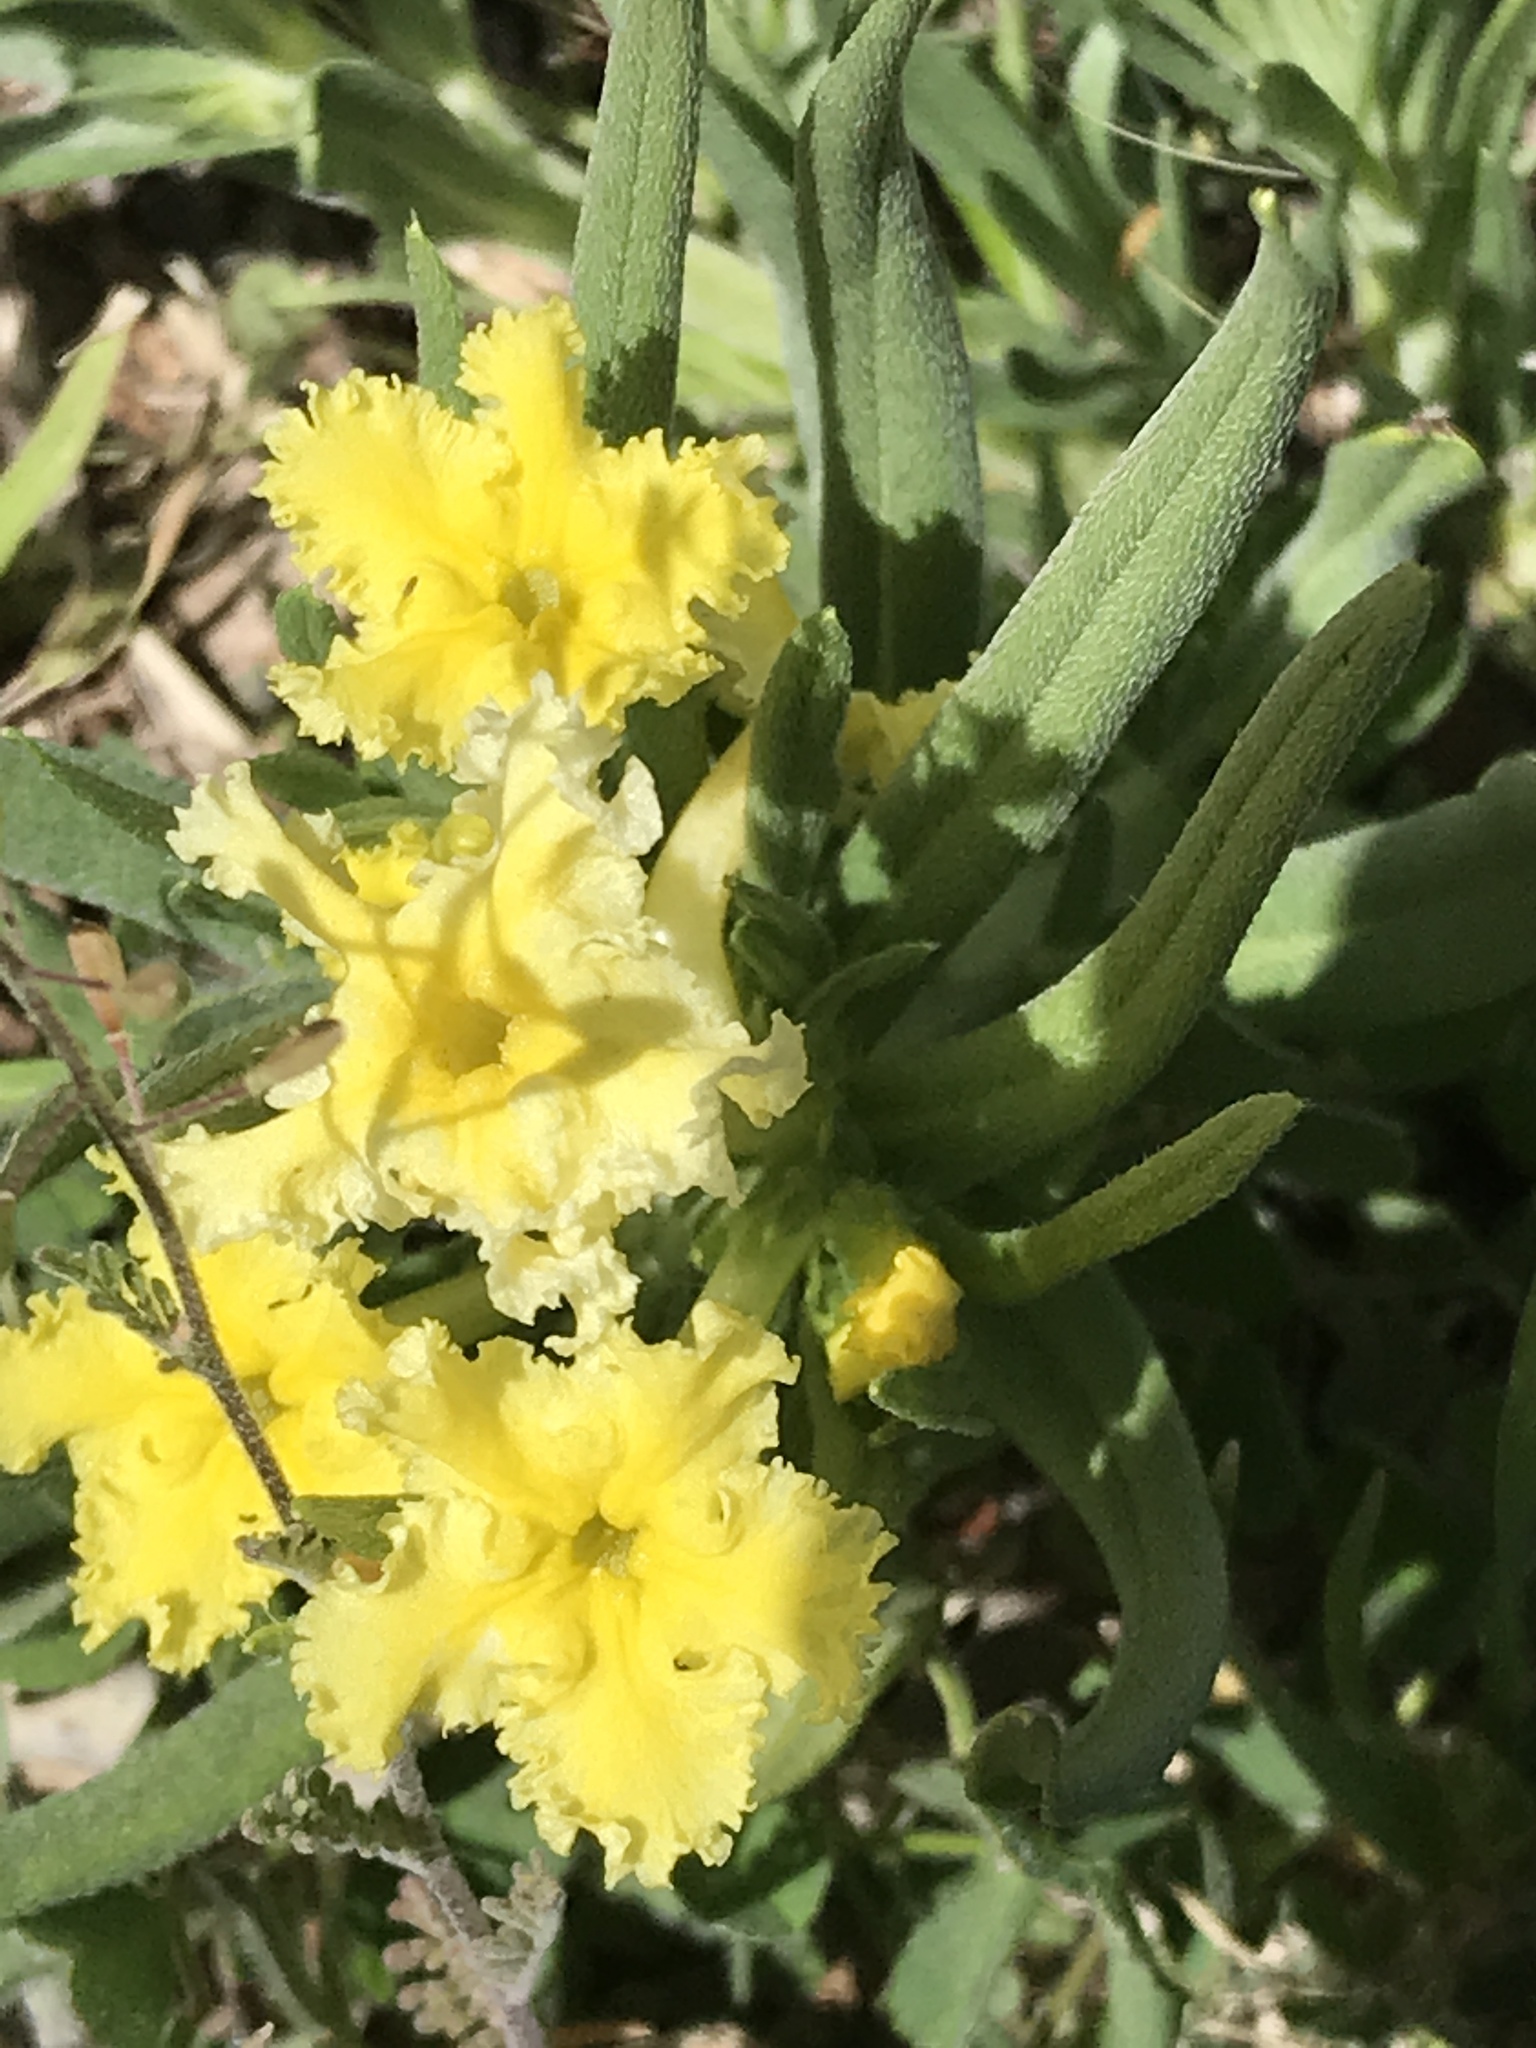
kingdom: Plantae
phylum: Tracheophyta
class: Magnoliopsida
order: Boraginales
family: Boraginaceae
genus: Lithospermum
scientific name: Lithospermum incisum
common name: Fringed gromwell
